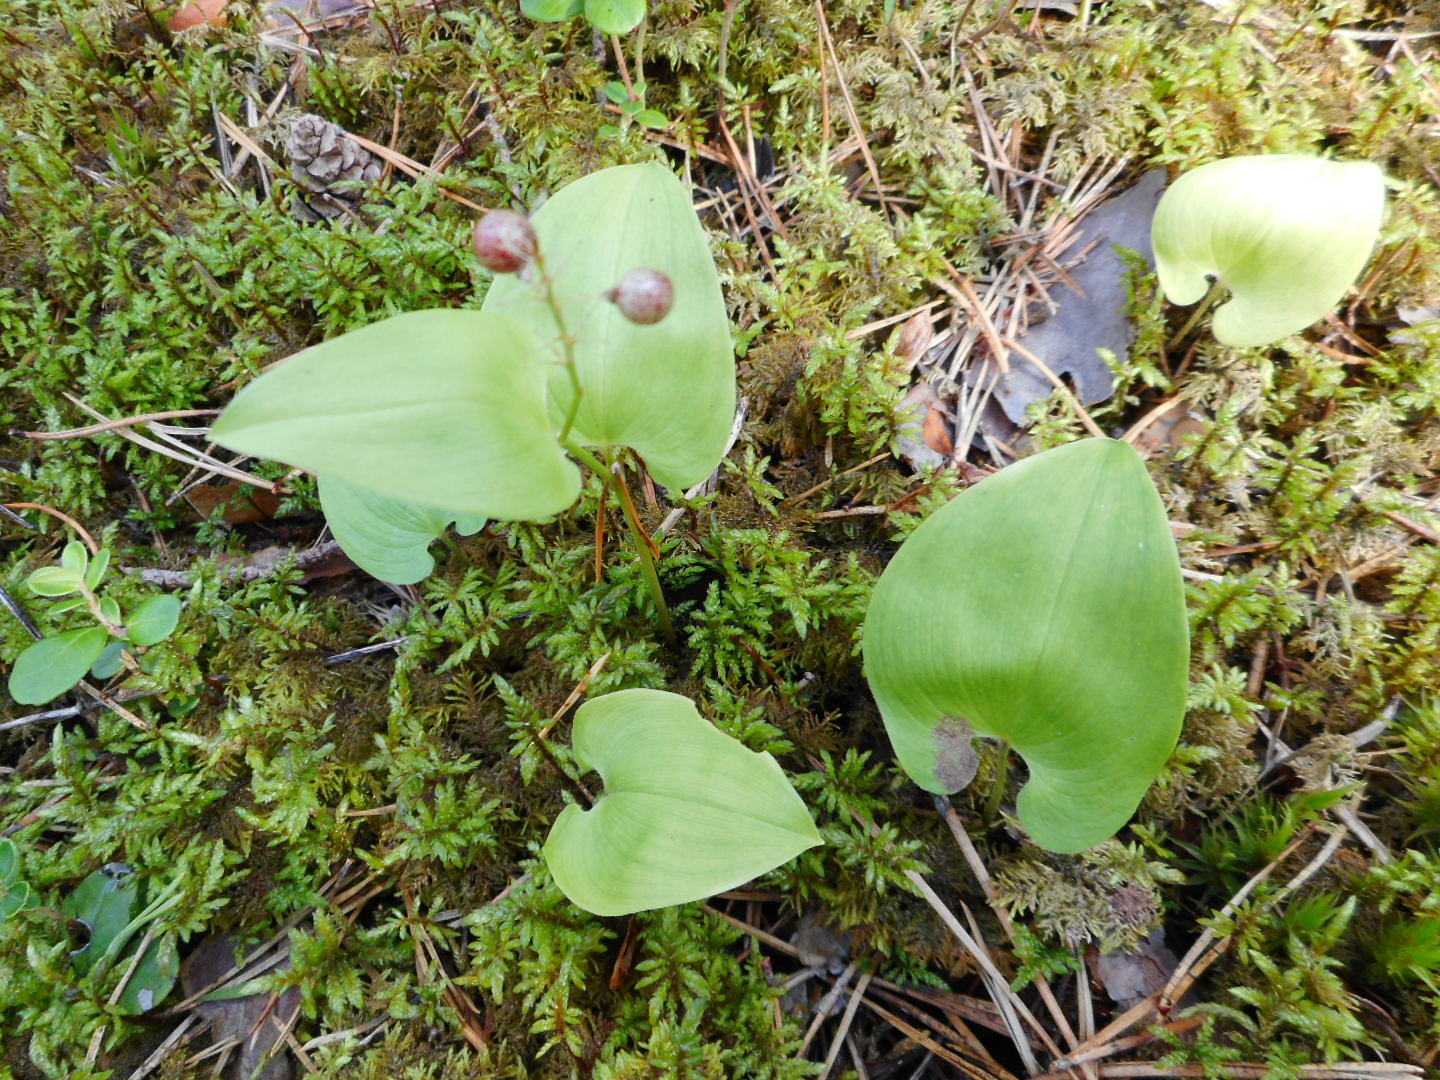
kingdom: Plantae
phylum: Tracheophyta
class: Liliopsida
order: Asparagales
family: Asparagaceae
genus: Maianthemum
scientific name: Maianthemum bifolium
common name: May lily
